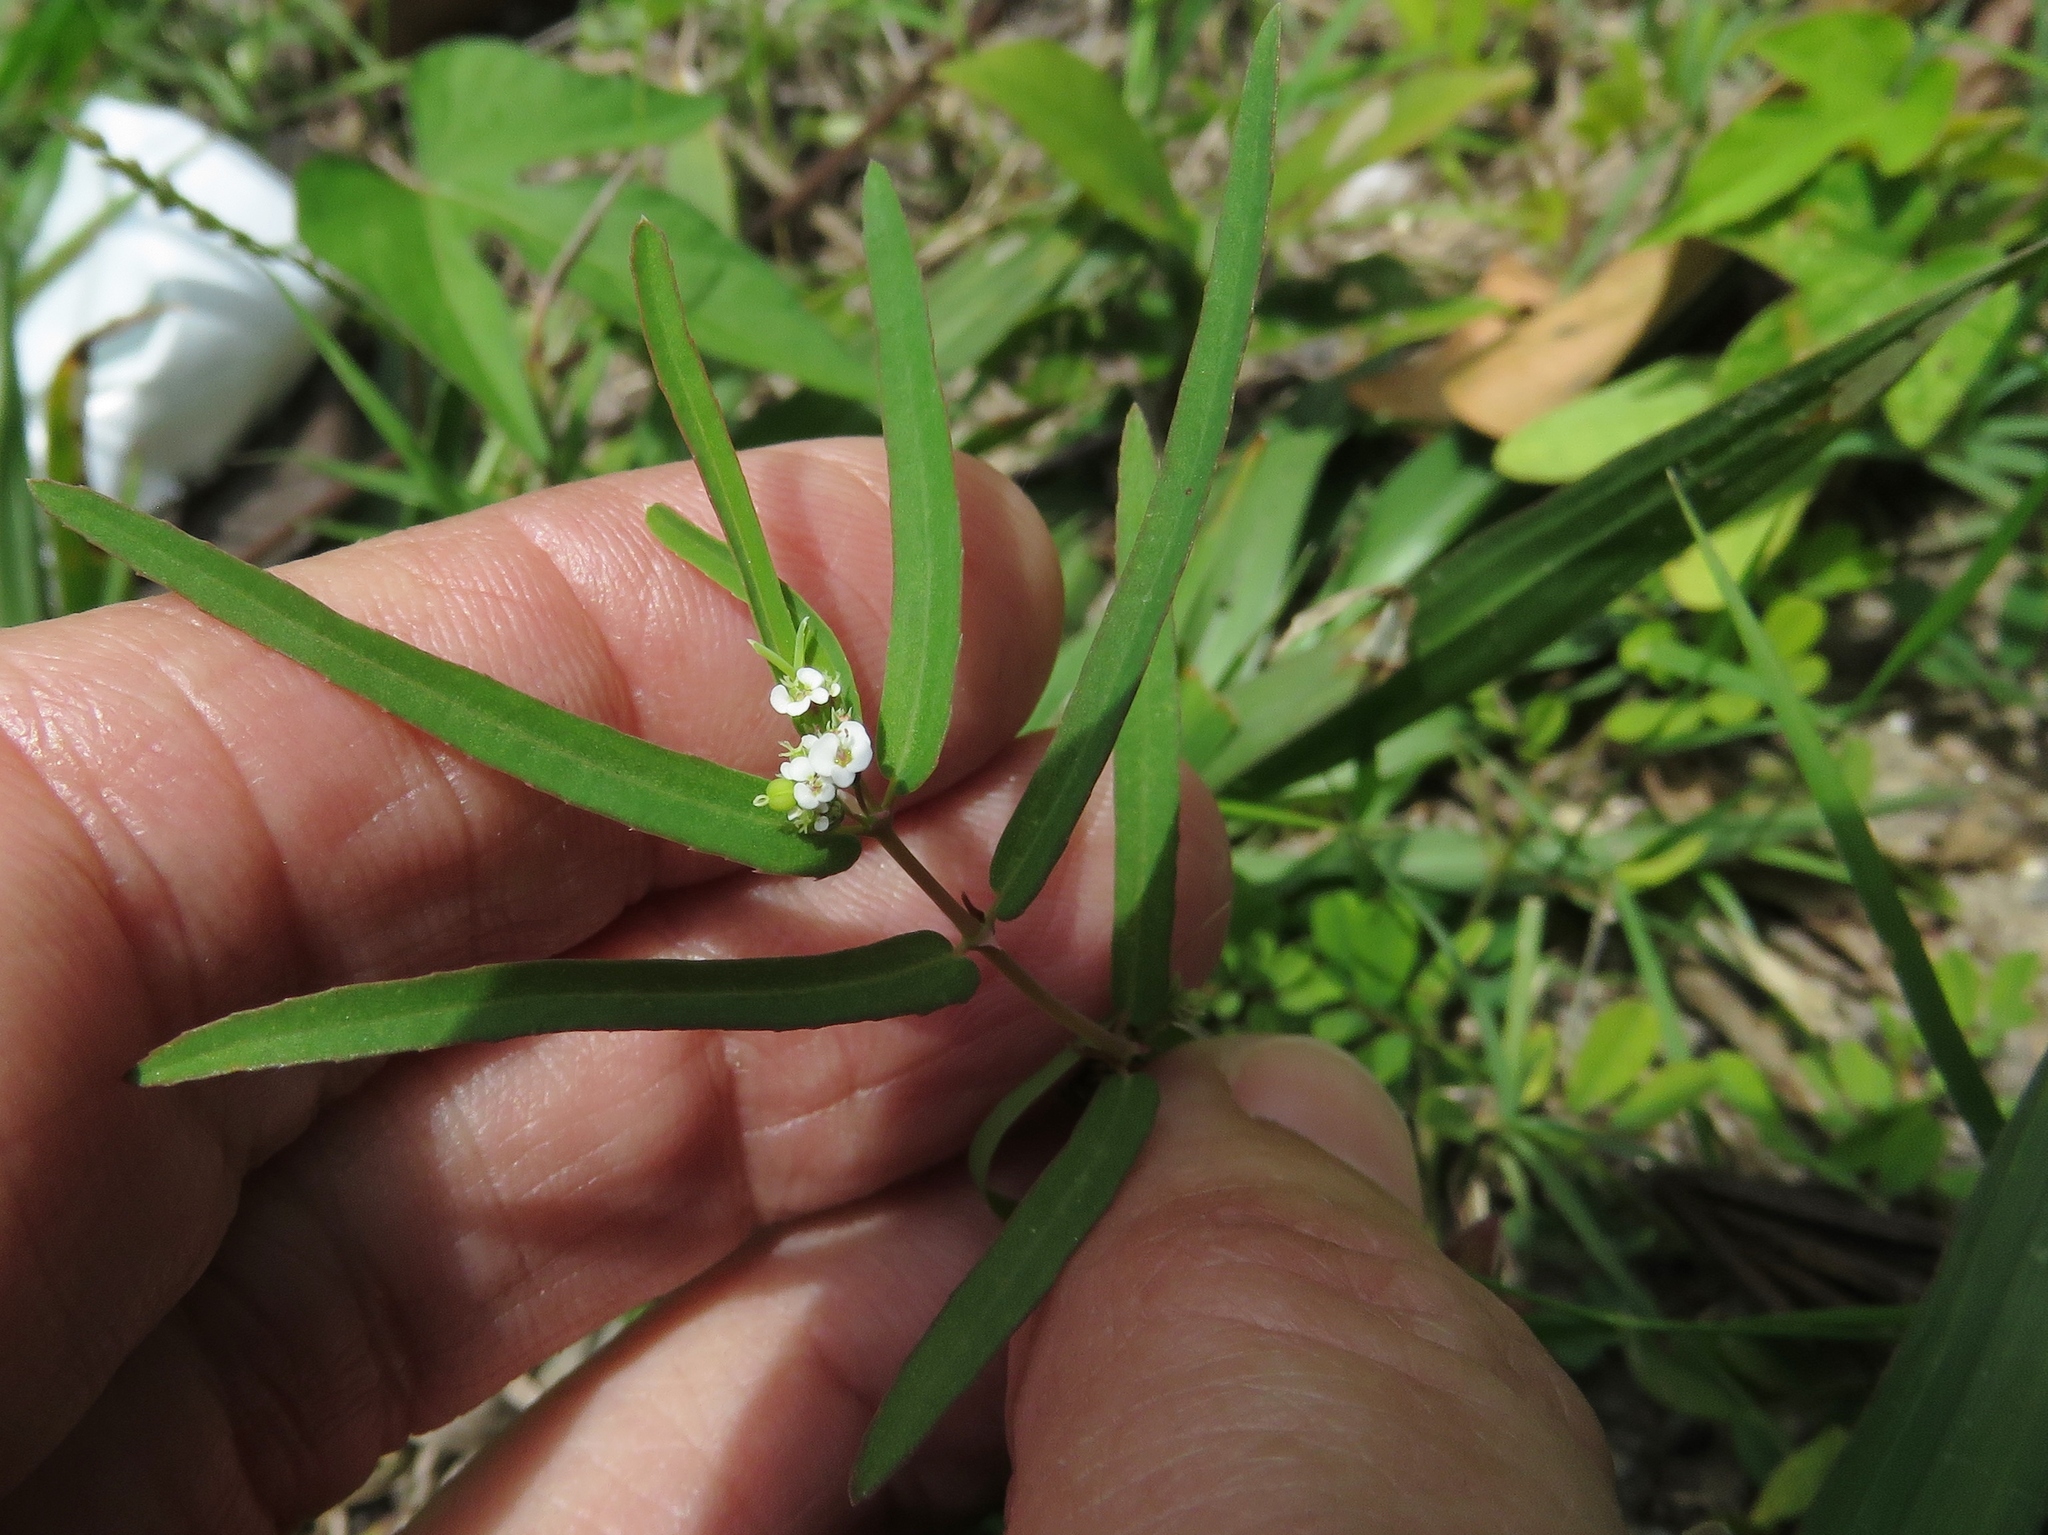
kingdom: Plantae
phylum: Tracheophyta
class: Magnoliopsida
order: Malpighiales
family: Euphorbiaceae
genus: Euphorbia
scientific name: Euphorbia hypericifolia
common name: Graceful sandmat
